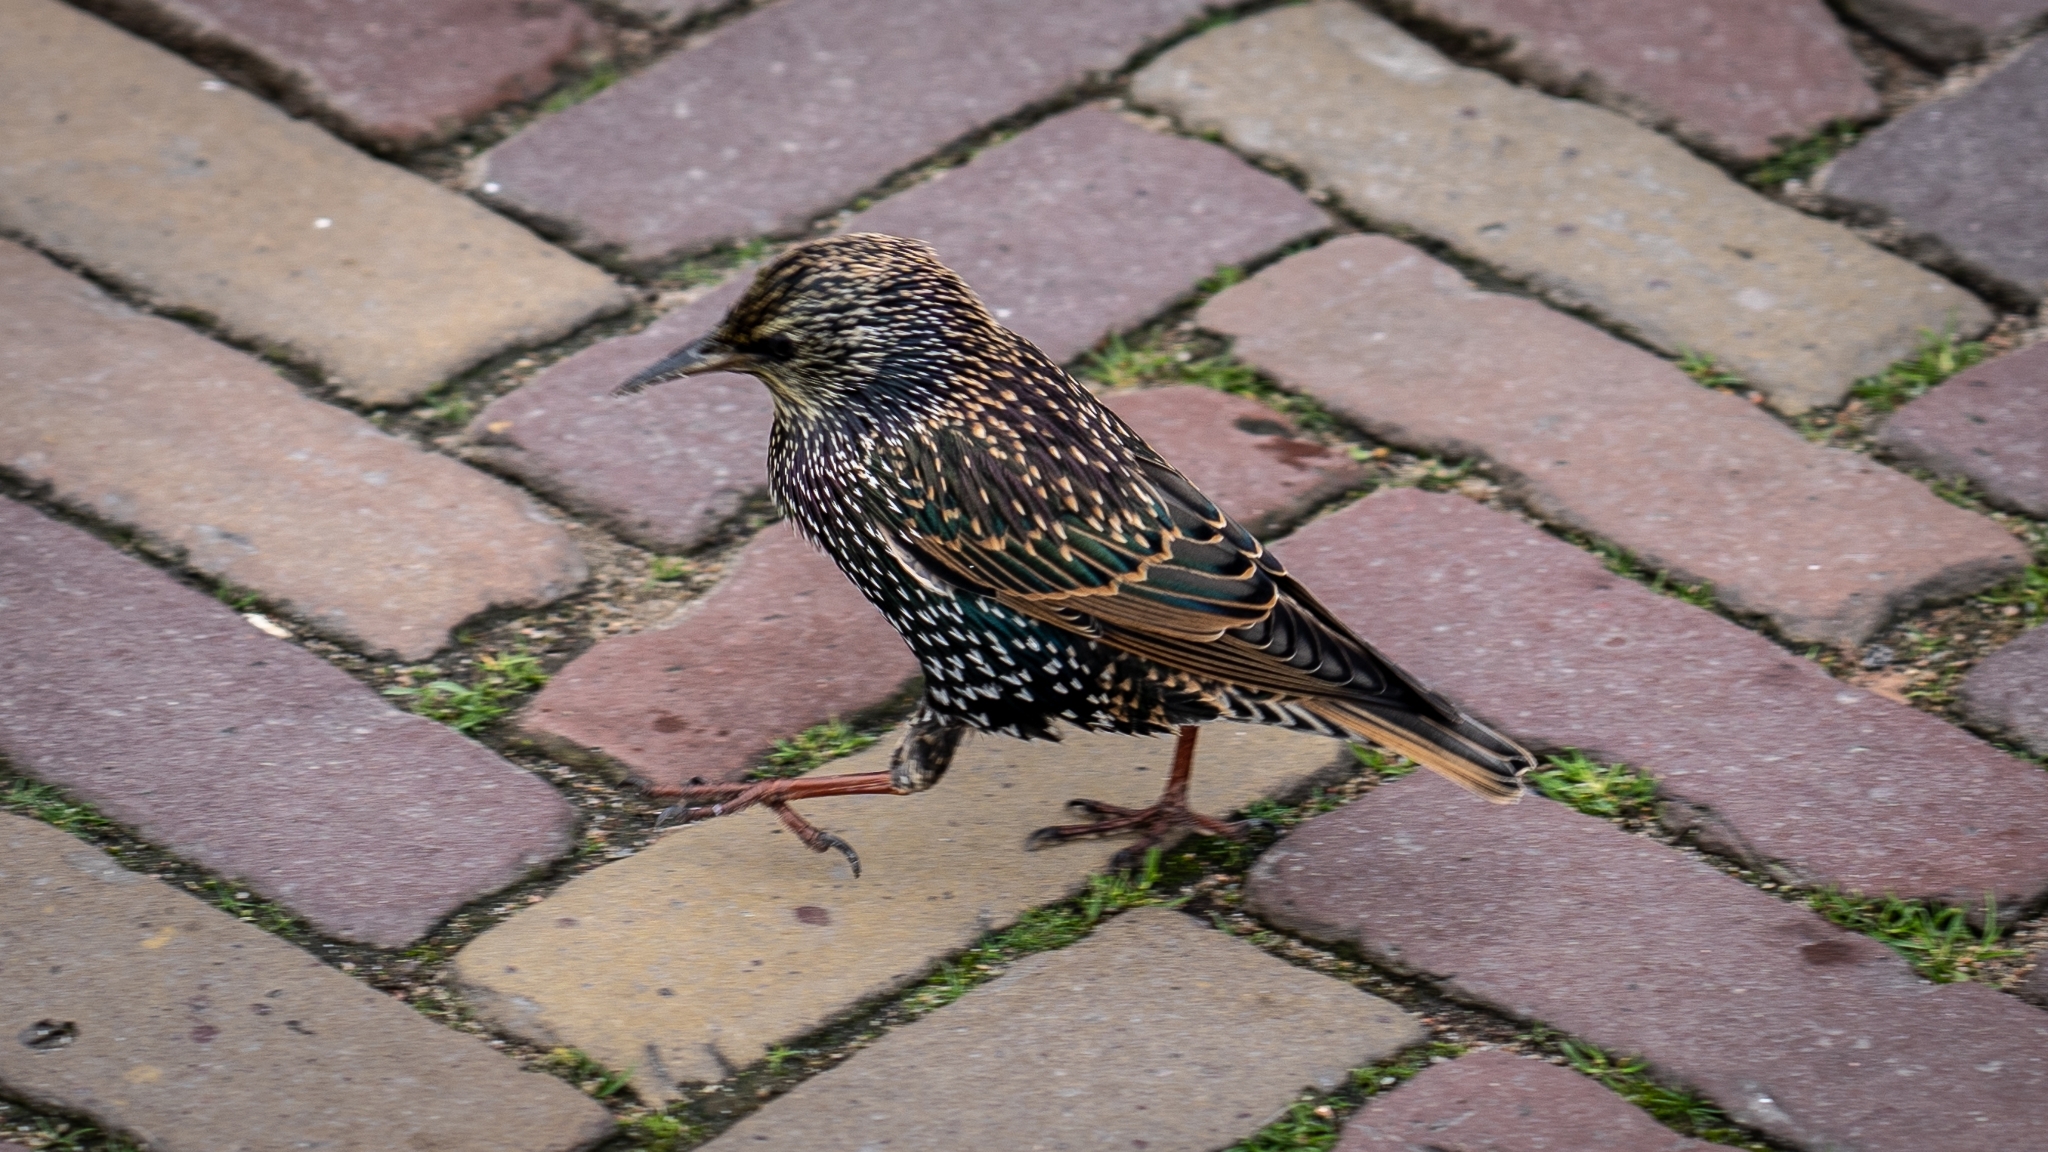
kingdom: Animalia
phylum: Chordata
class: Aves
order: Passeriformes
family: Sturnidae
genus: Sturnus
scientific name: Sturnus vulgaris
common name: Common starling
